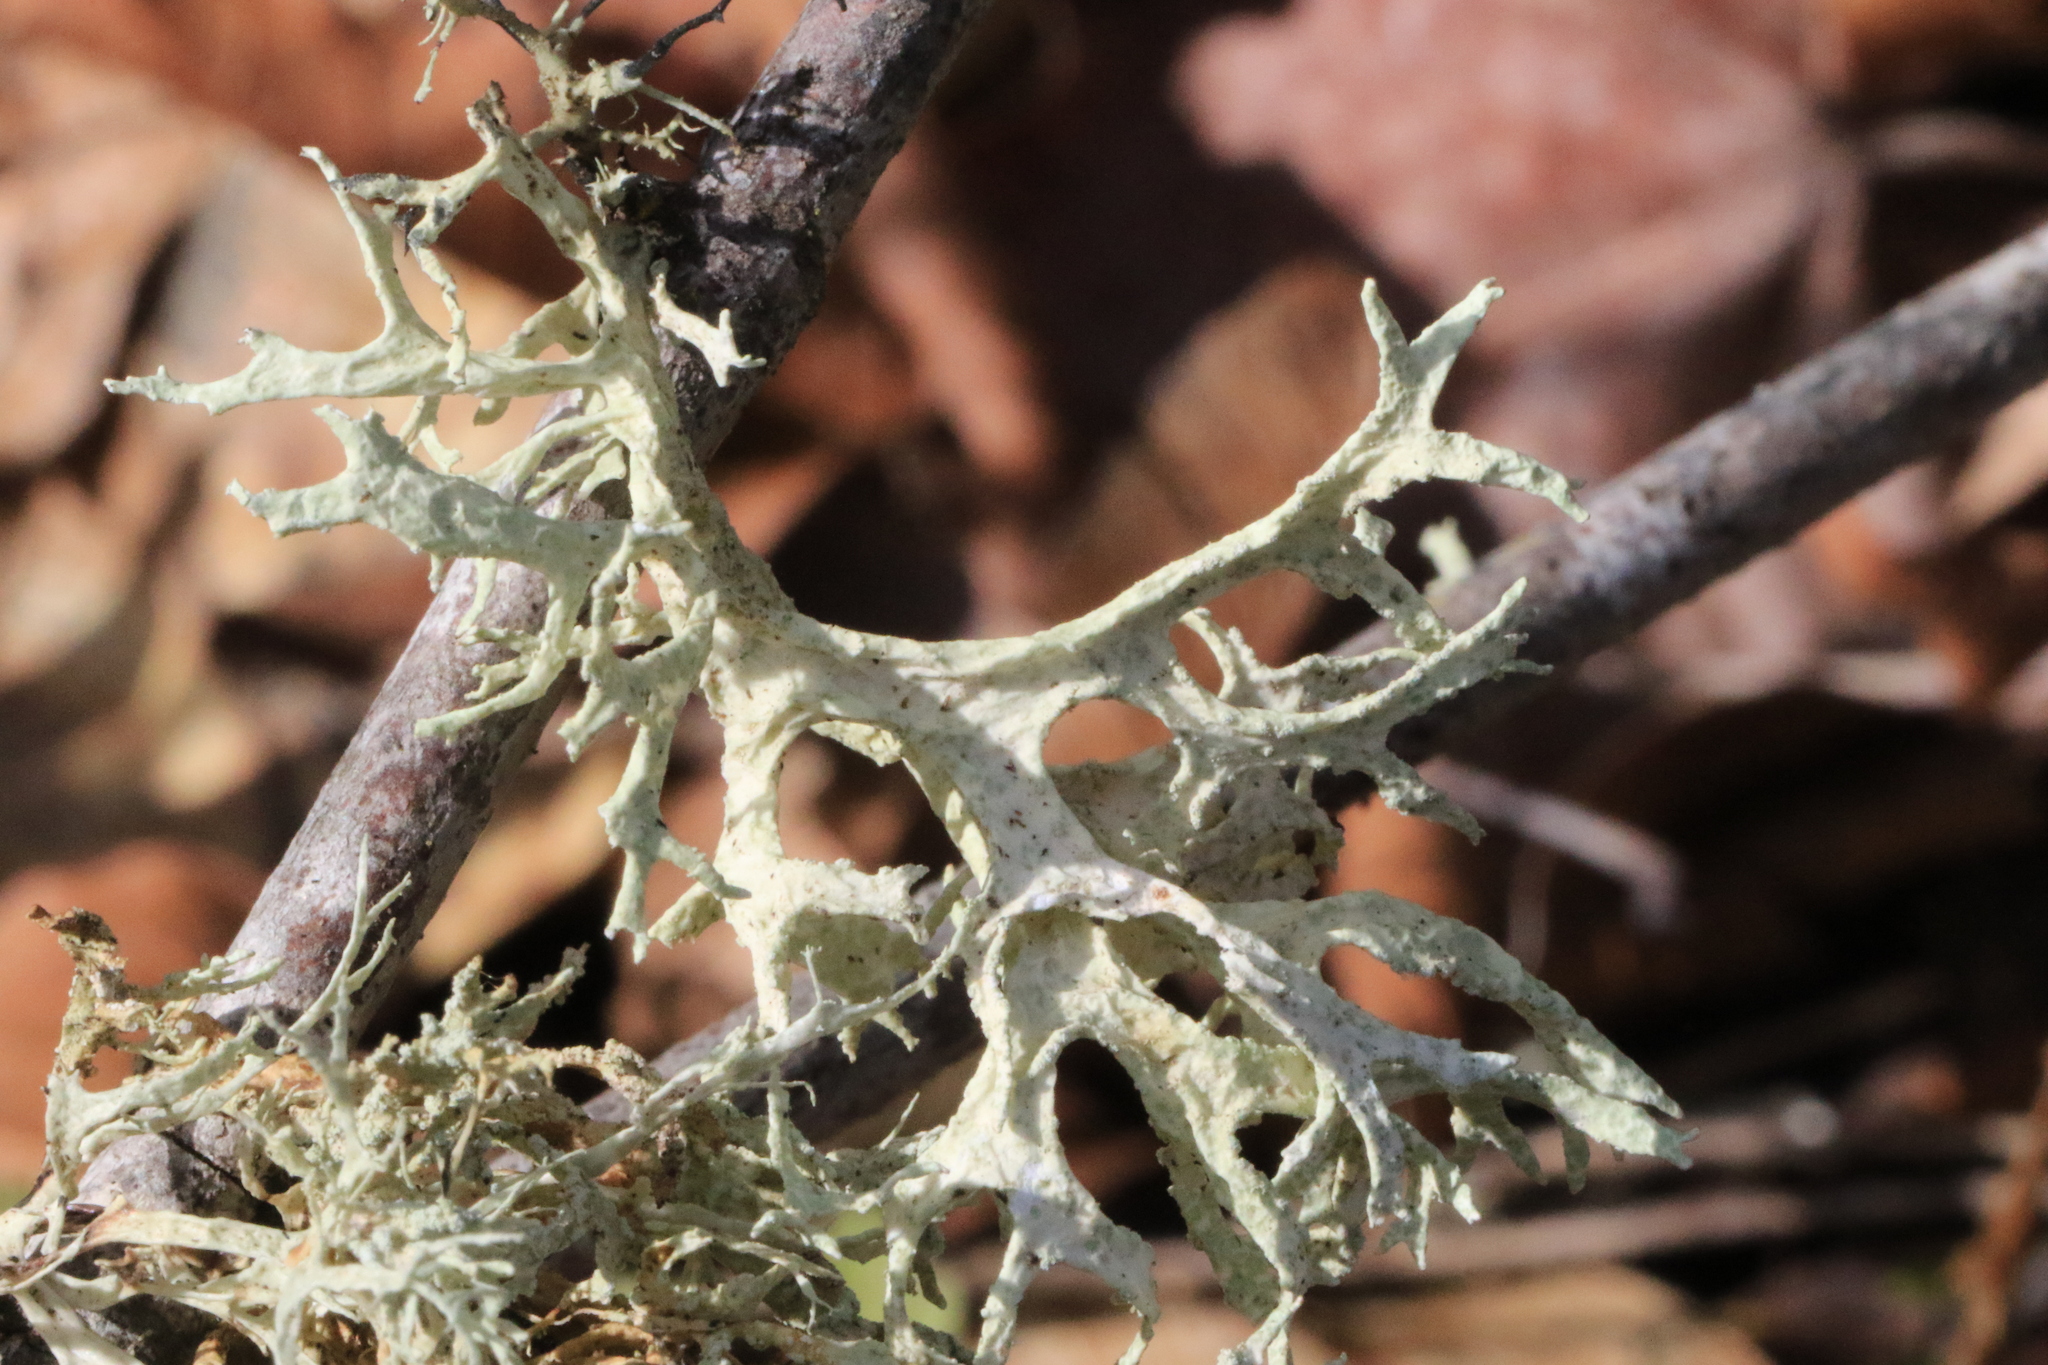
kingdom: Fungi
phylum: Ascomycota
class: Lecanoromycetes
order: Lecanorales
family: Parmeliaceae
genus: Evernia
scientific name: Evernia prunastri
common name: Oak moss
